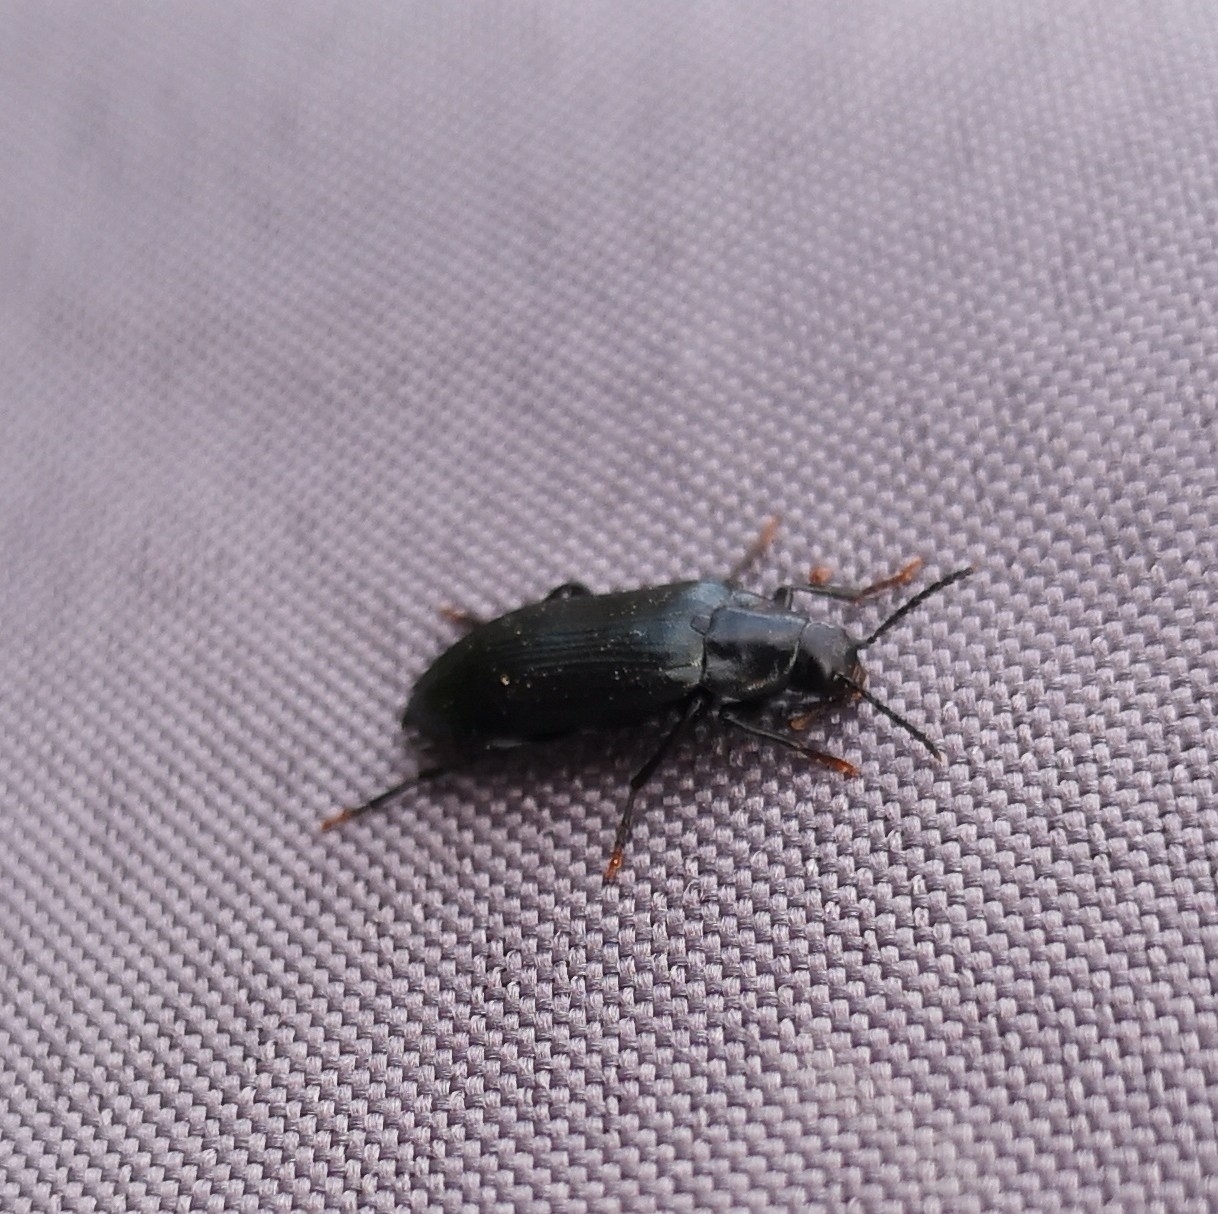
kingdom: Animalia
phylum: Arthropoda
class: Insecta
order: Coleoptera
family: Melandryidae
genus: Melandrya
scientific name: Melandrya caraboides
